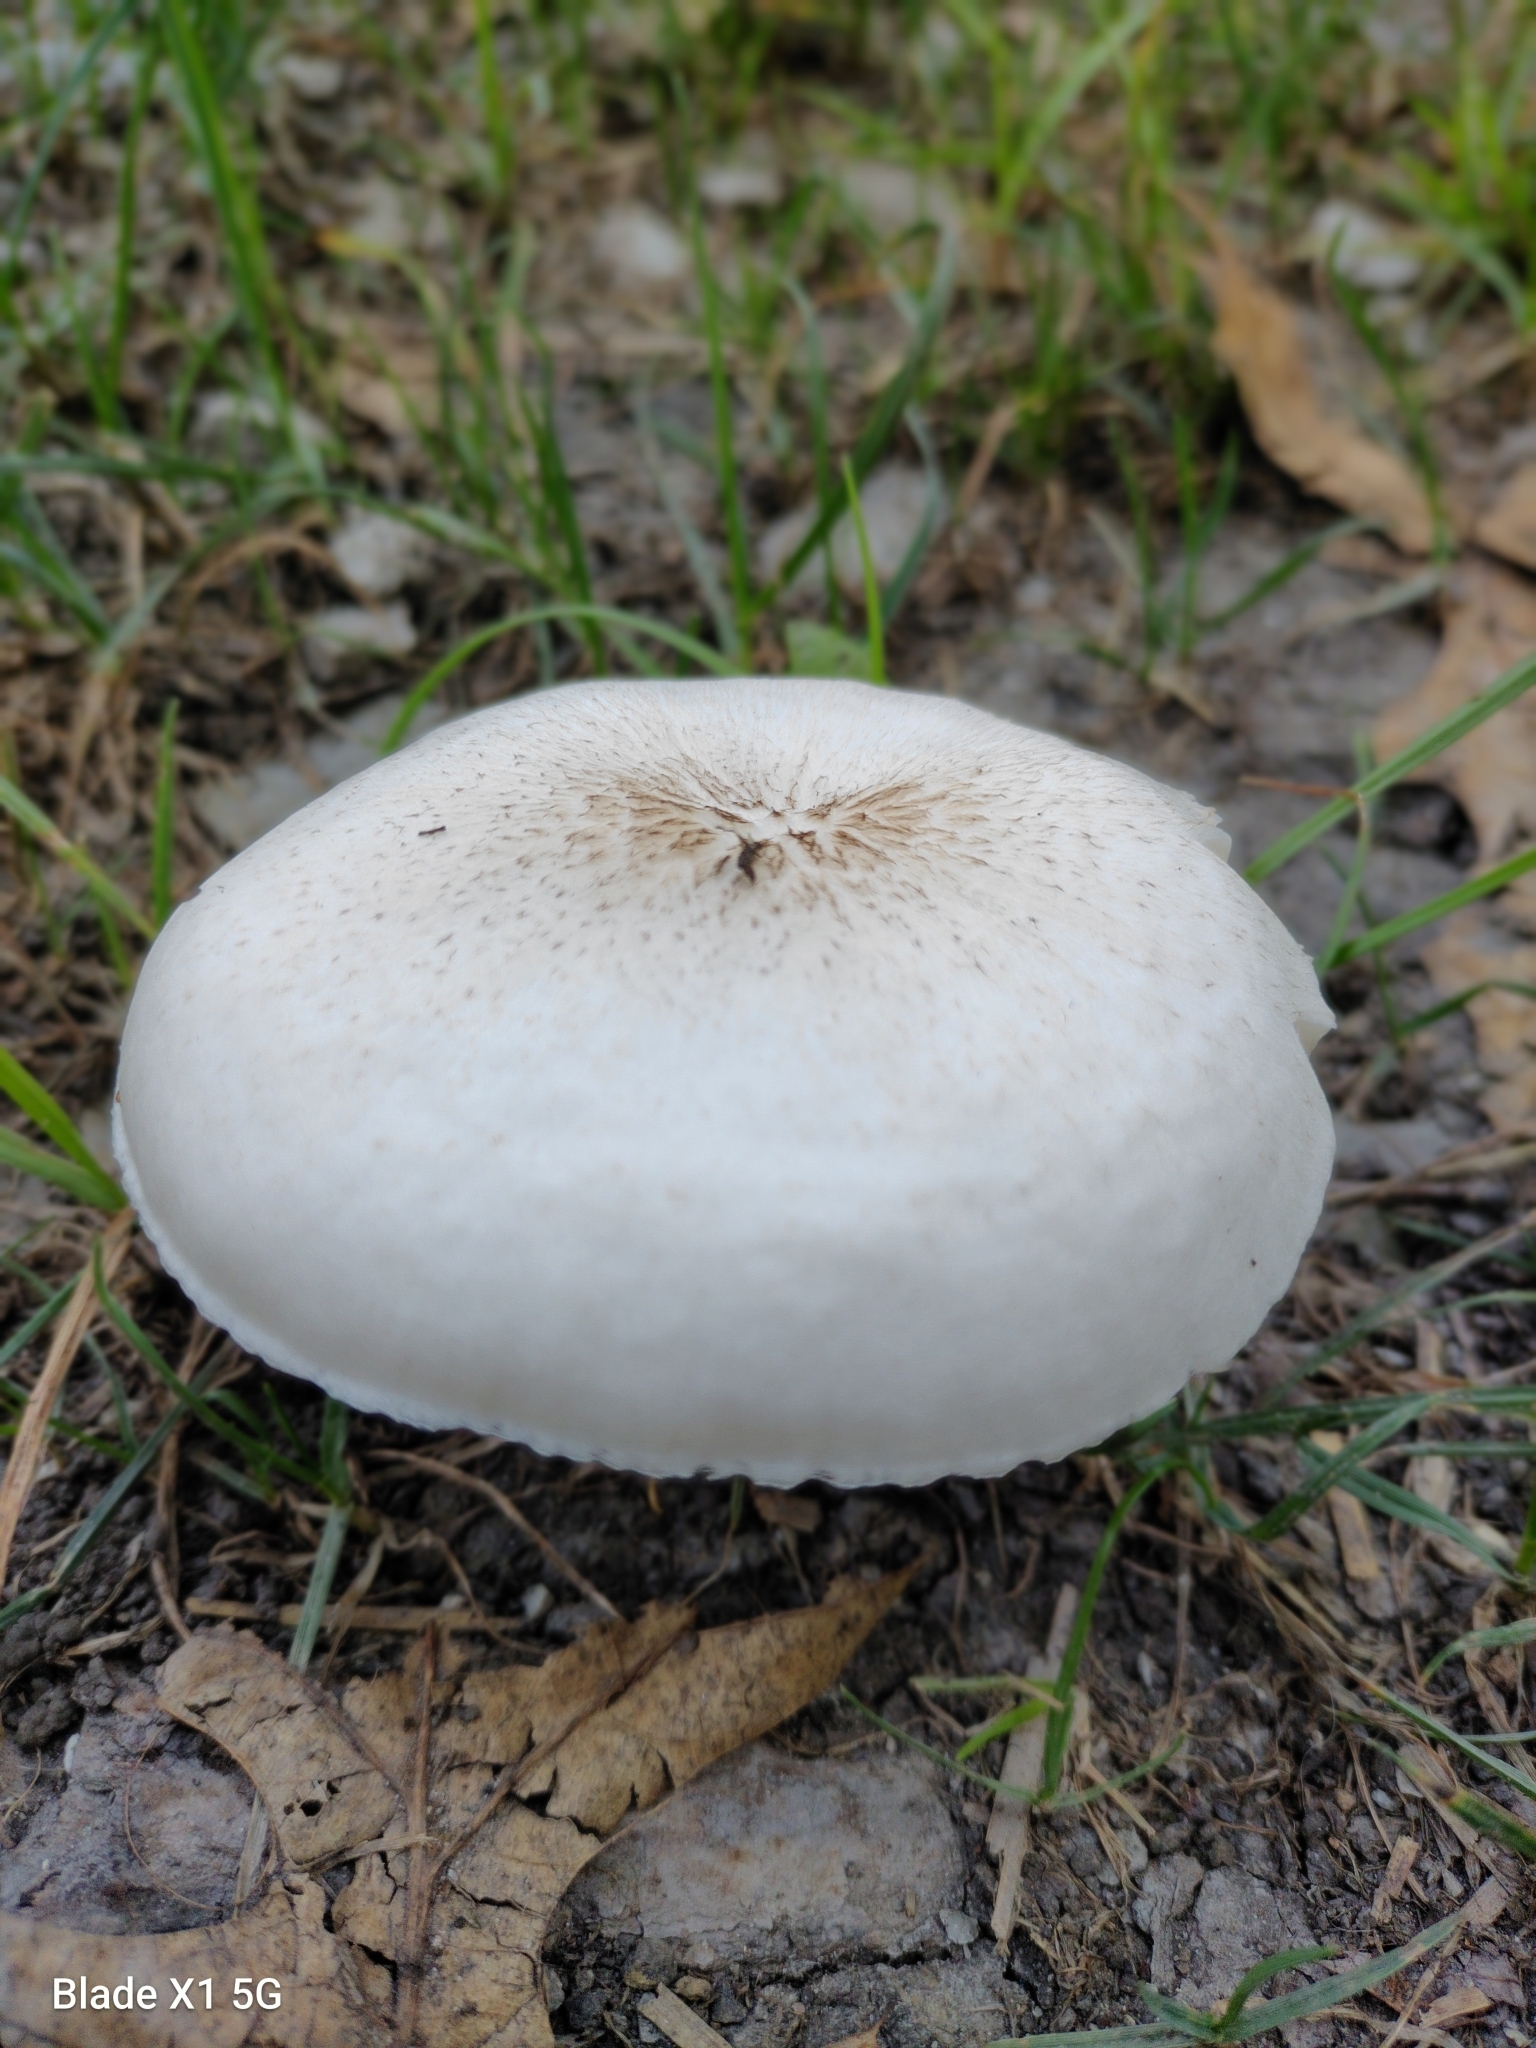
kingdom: Fungi
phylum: Basidiomycota
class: Agaricomycetes
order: Agaricales
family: Pluteaceae
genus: Pluteus
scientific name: Pluteus petasatus
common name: Scaly shield
